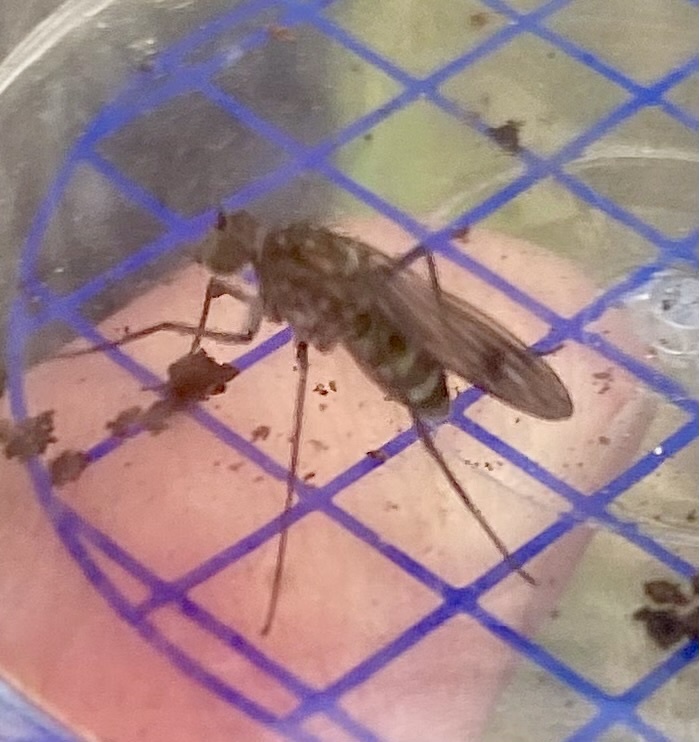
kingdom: Animalia
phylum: Arthropoda
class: Insecta
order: Diptera
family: Dolichopodidae
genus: Liancalus
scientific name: Liancalus virens
